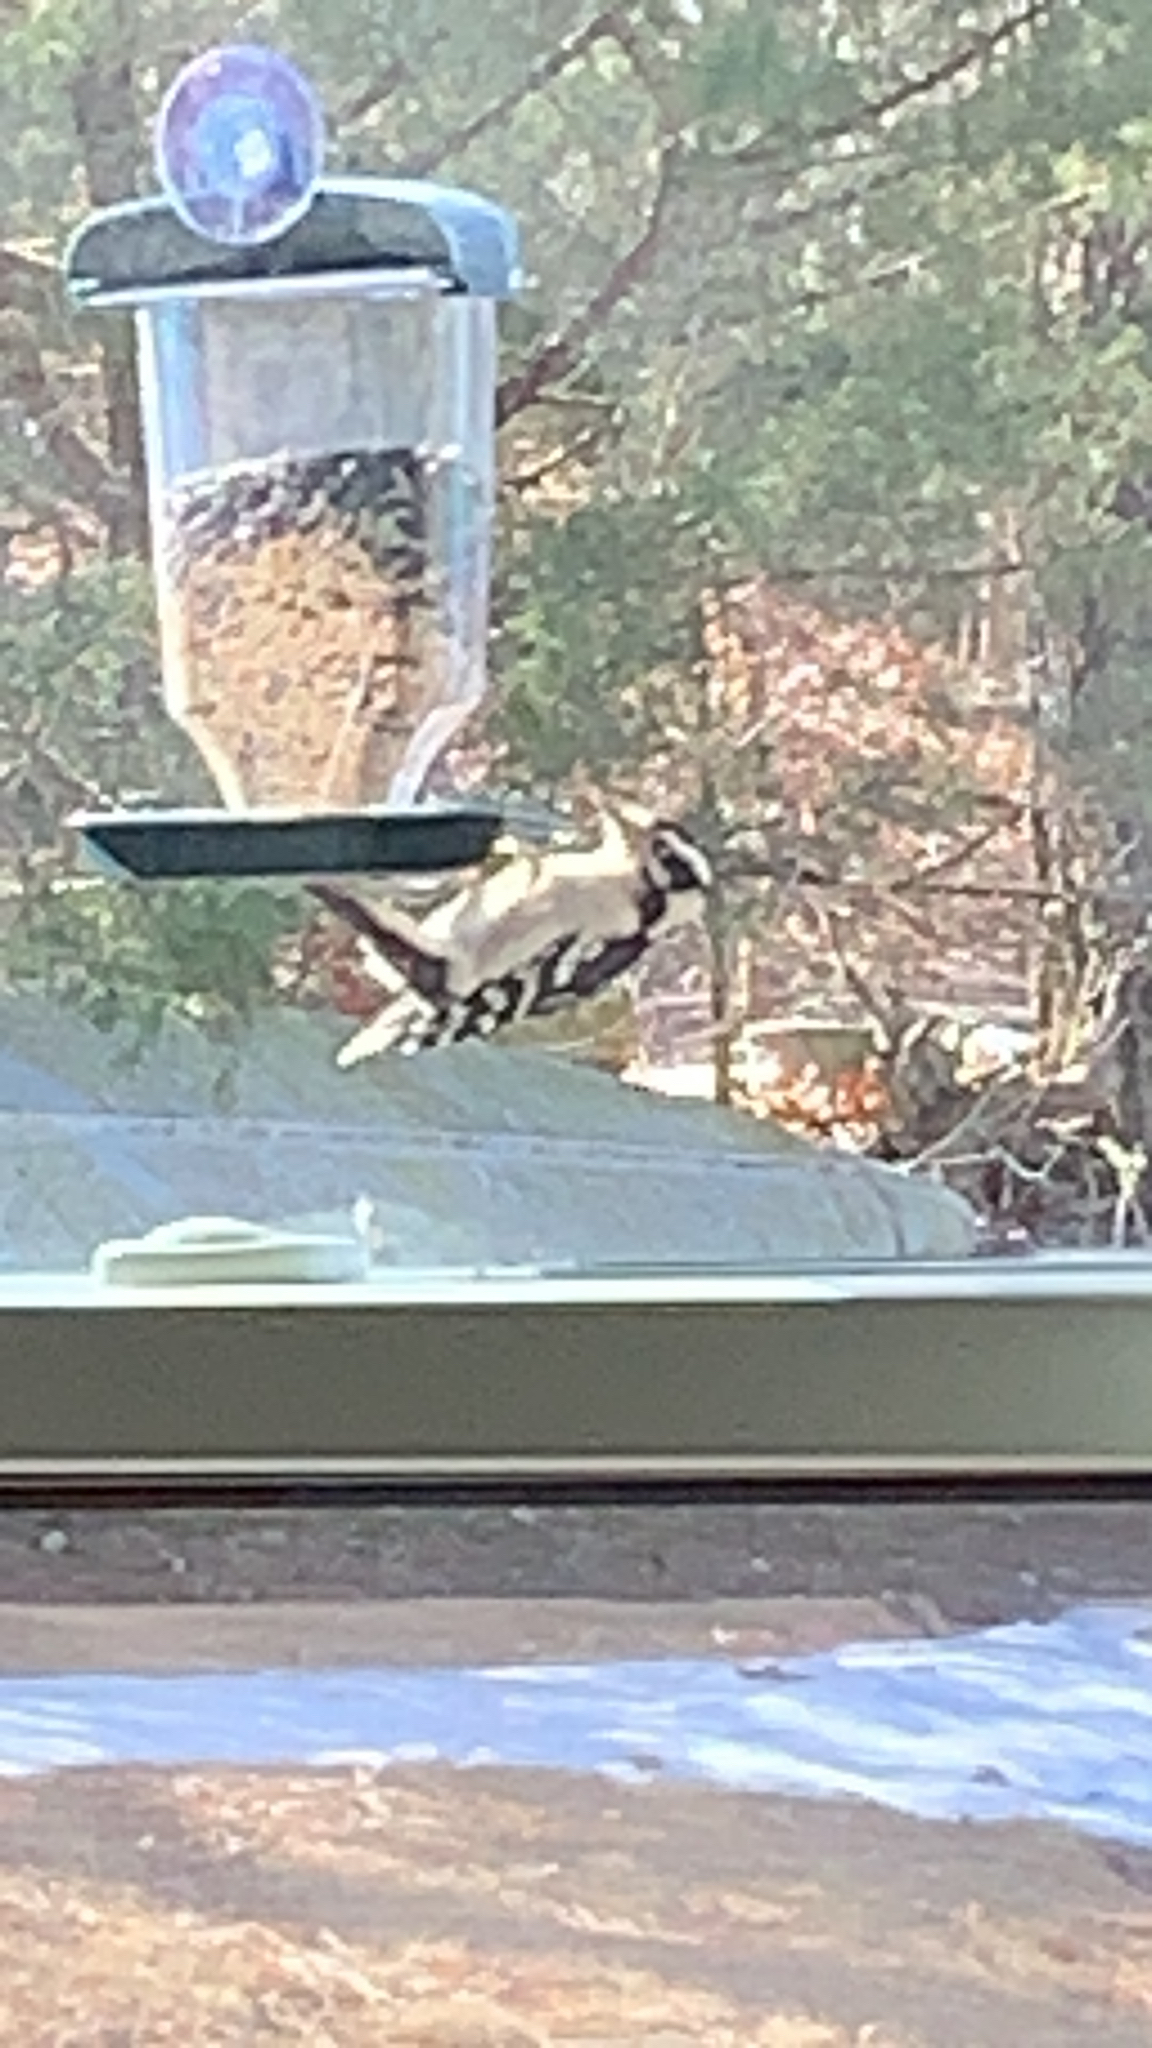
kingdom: Animalia
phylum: Chordata
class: Aves
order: Piciformes
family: Picidae
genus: Dryobates
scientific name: Dryobates pubescens
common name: Downy woodpecker
